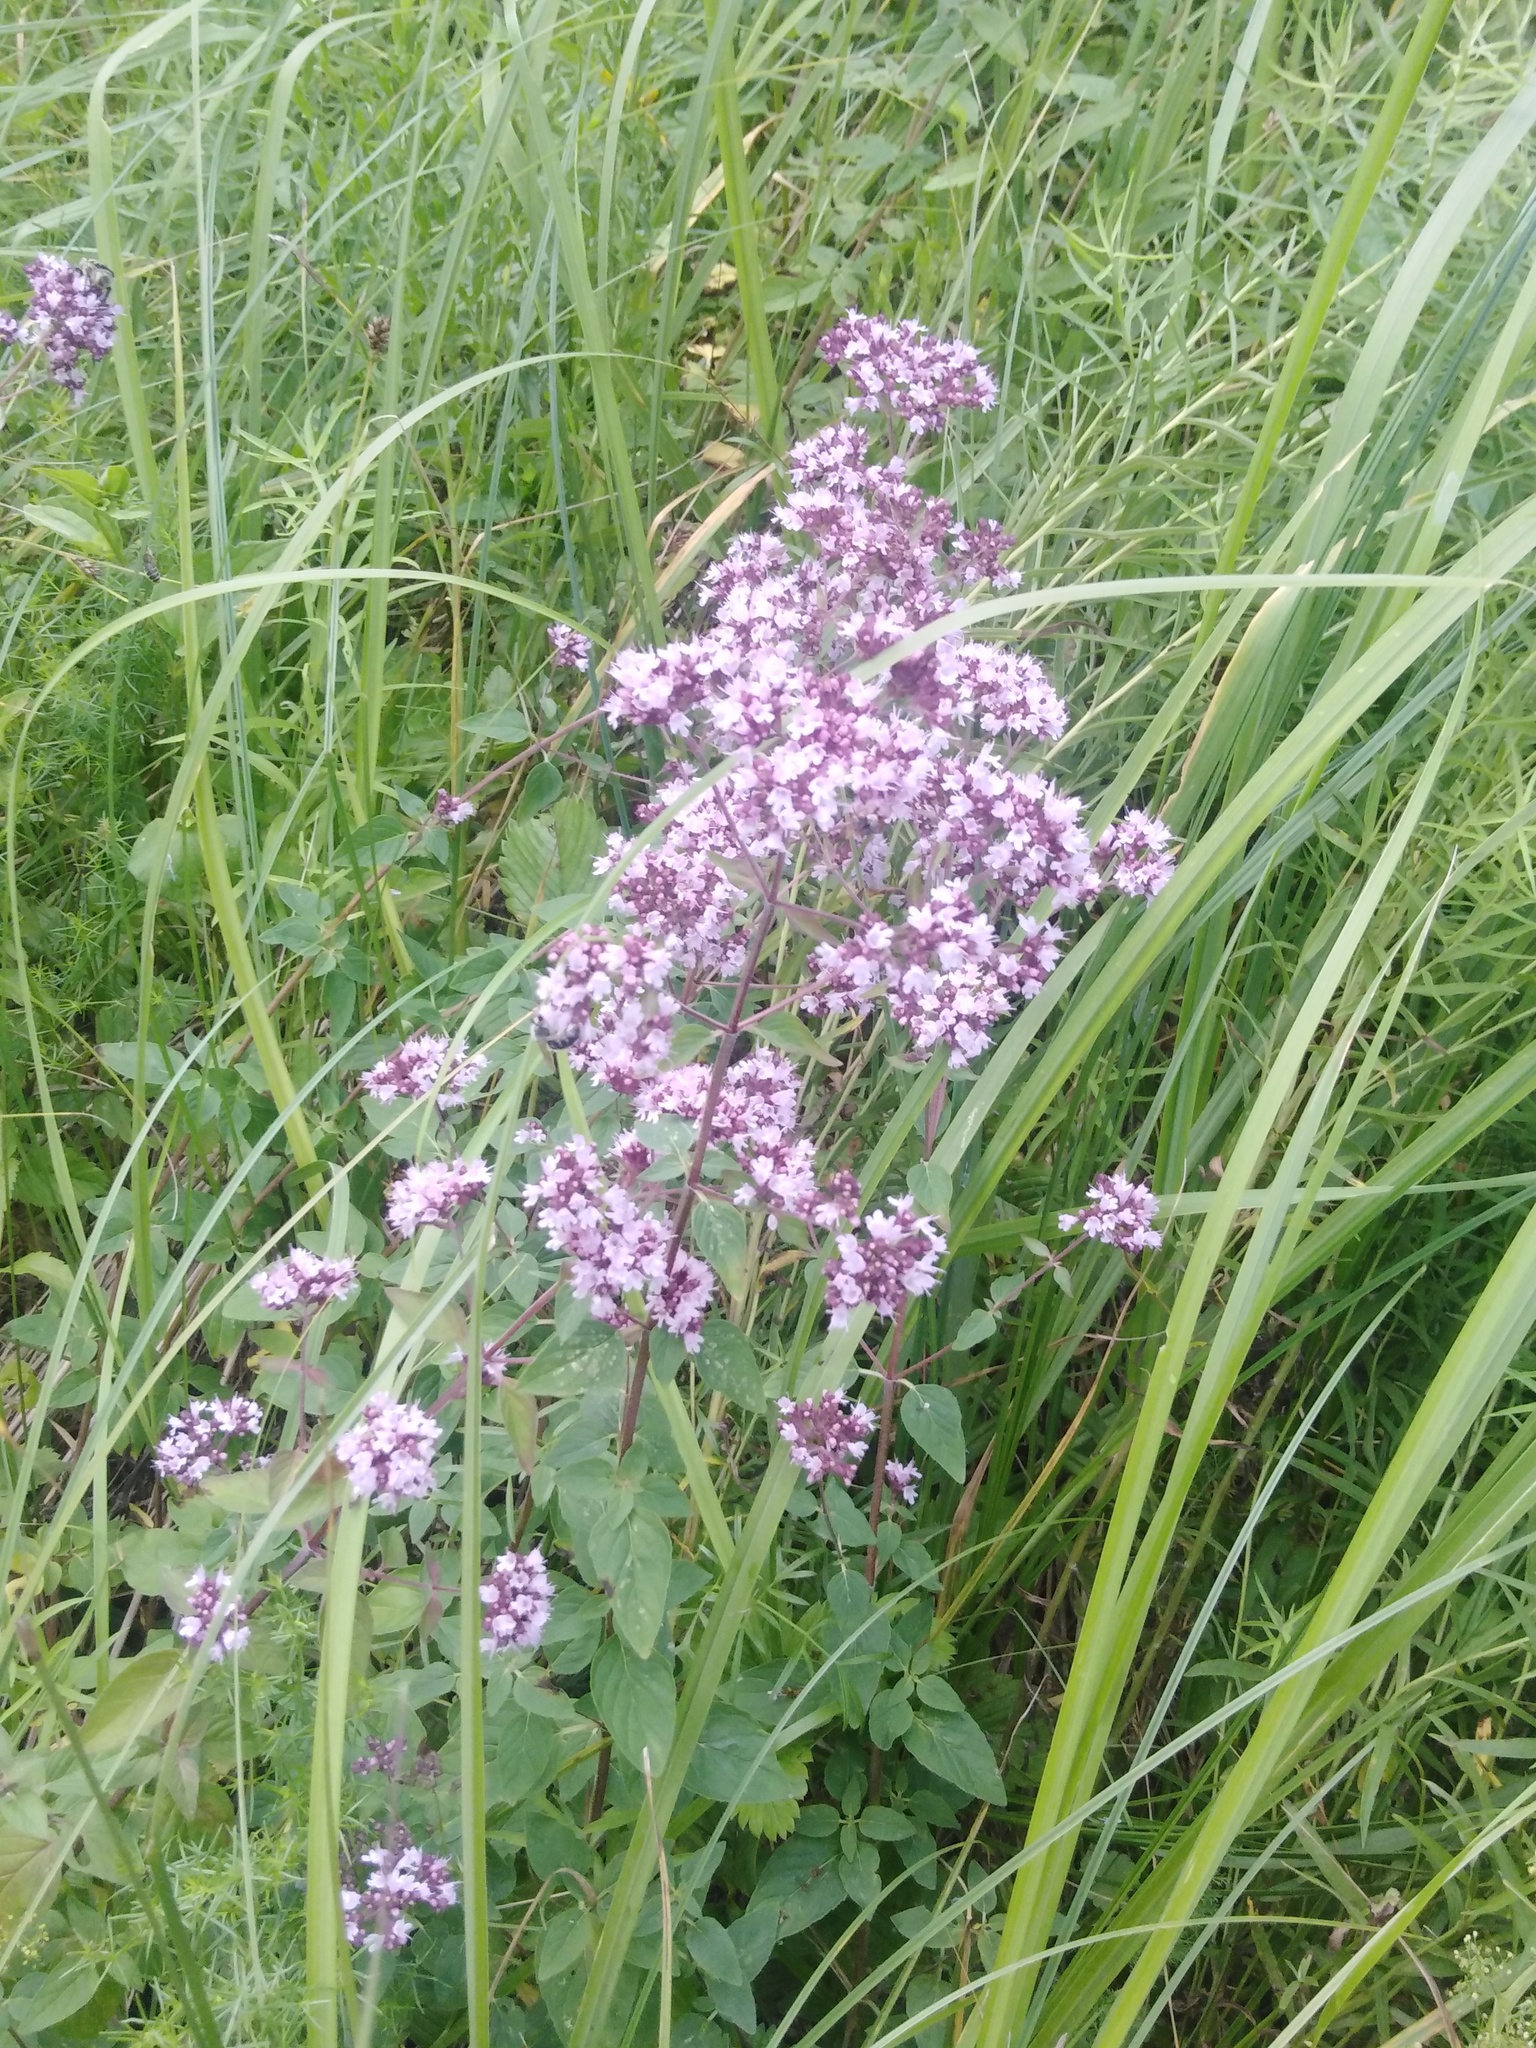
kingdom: Plantae
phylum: Tracheophyta
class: Magnoliopsida
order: Lamiales
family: Lamiaceae
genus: Origanum
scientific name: Origanum vulgare
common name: Wild marjoram
